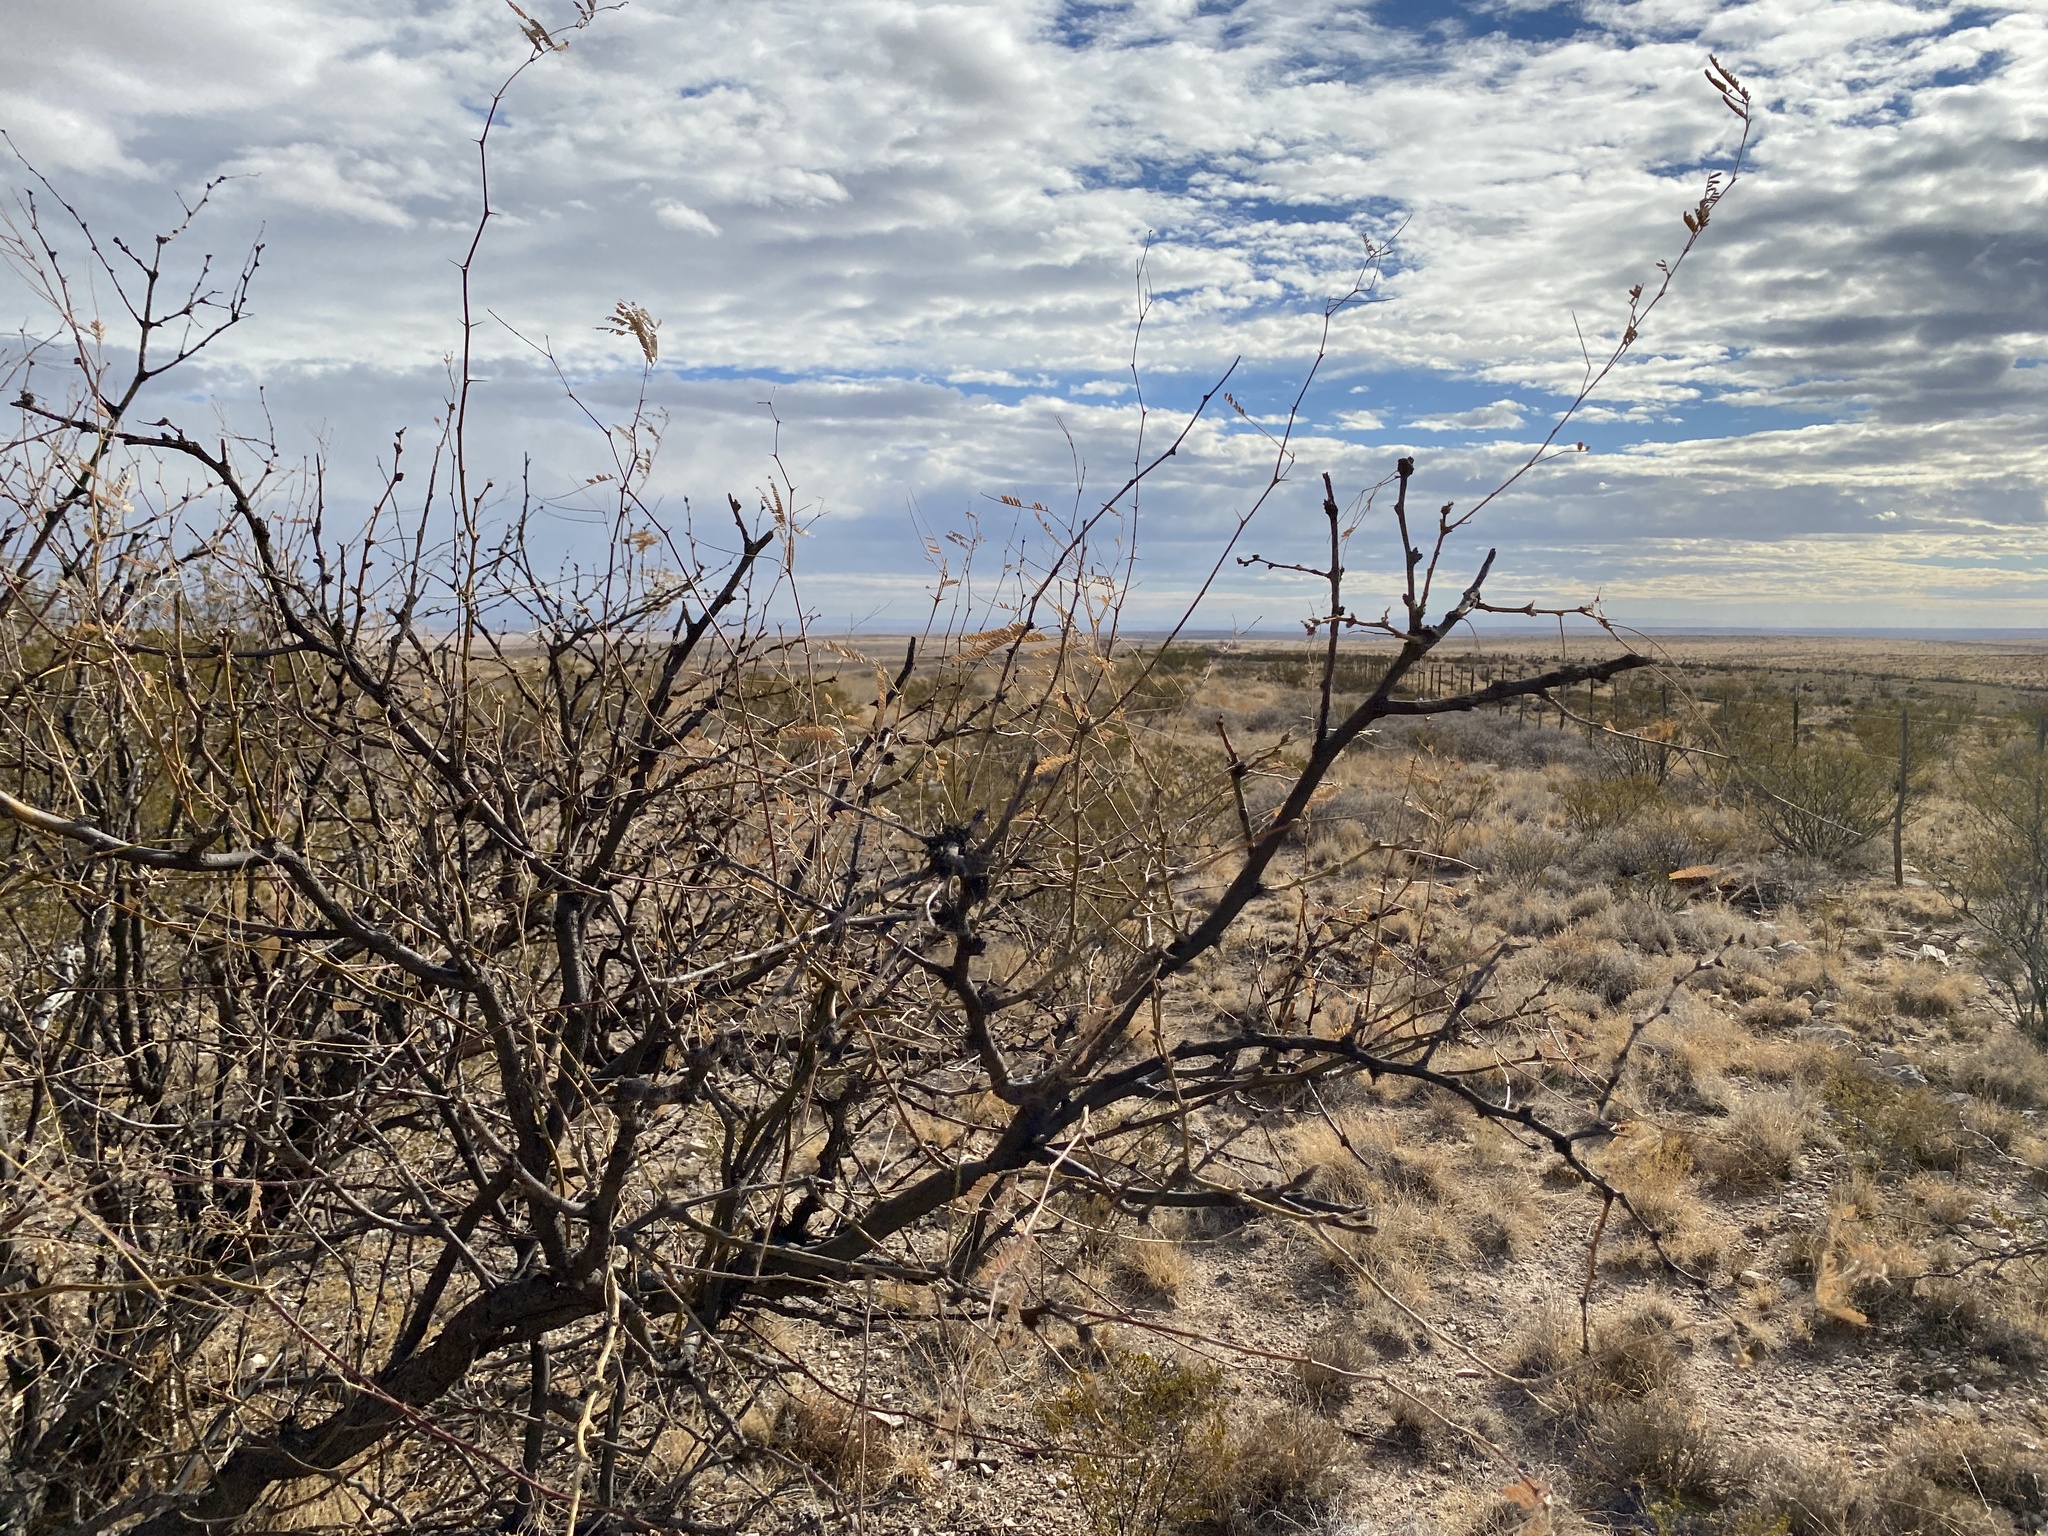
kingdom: Plantae
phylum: Tracheophyta
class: Magnoliopsida
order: Fabales
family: Fabaceae
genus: Prosopis
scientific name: Prosopis glandulosa
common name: Honey mesquite
